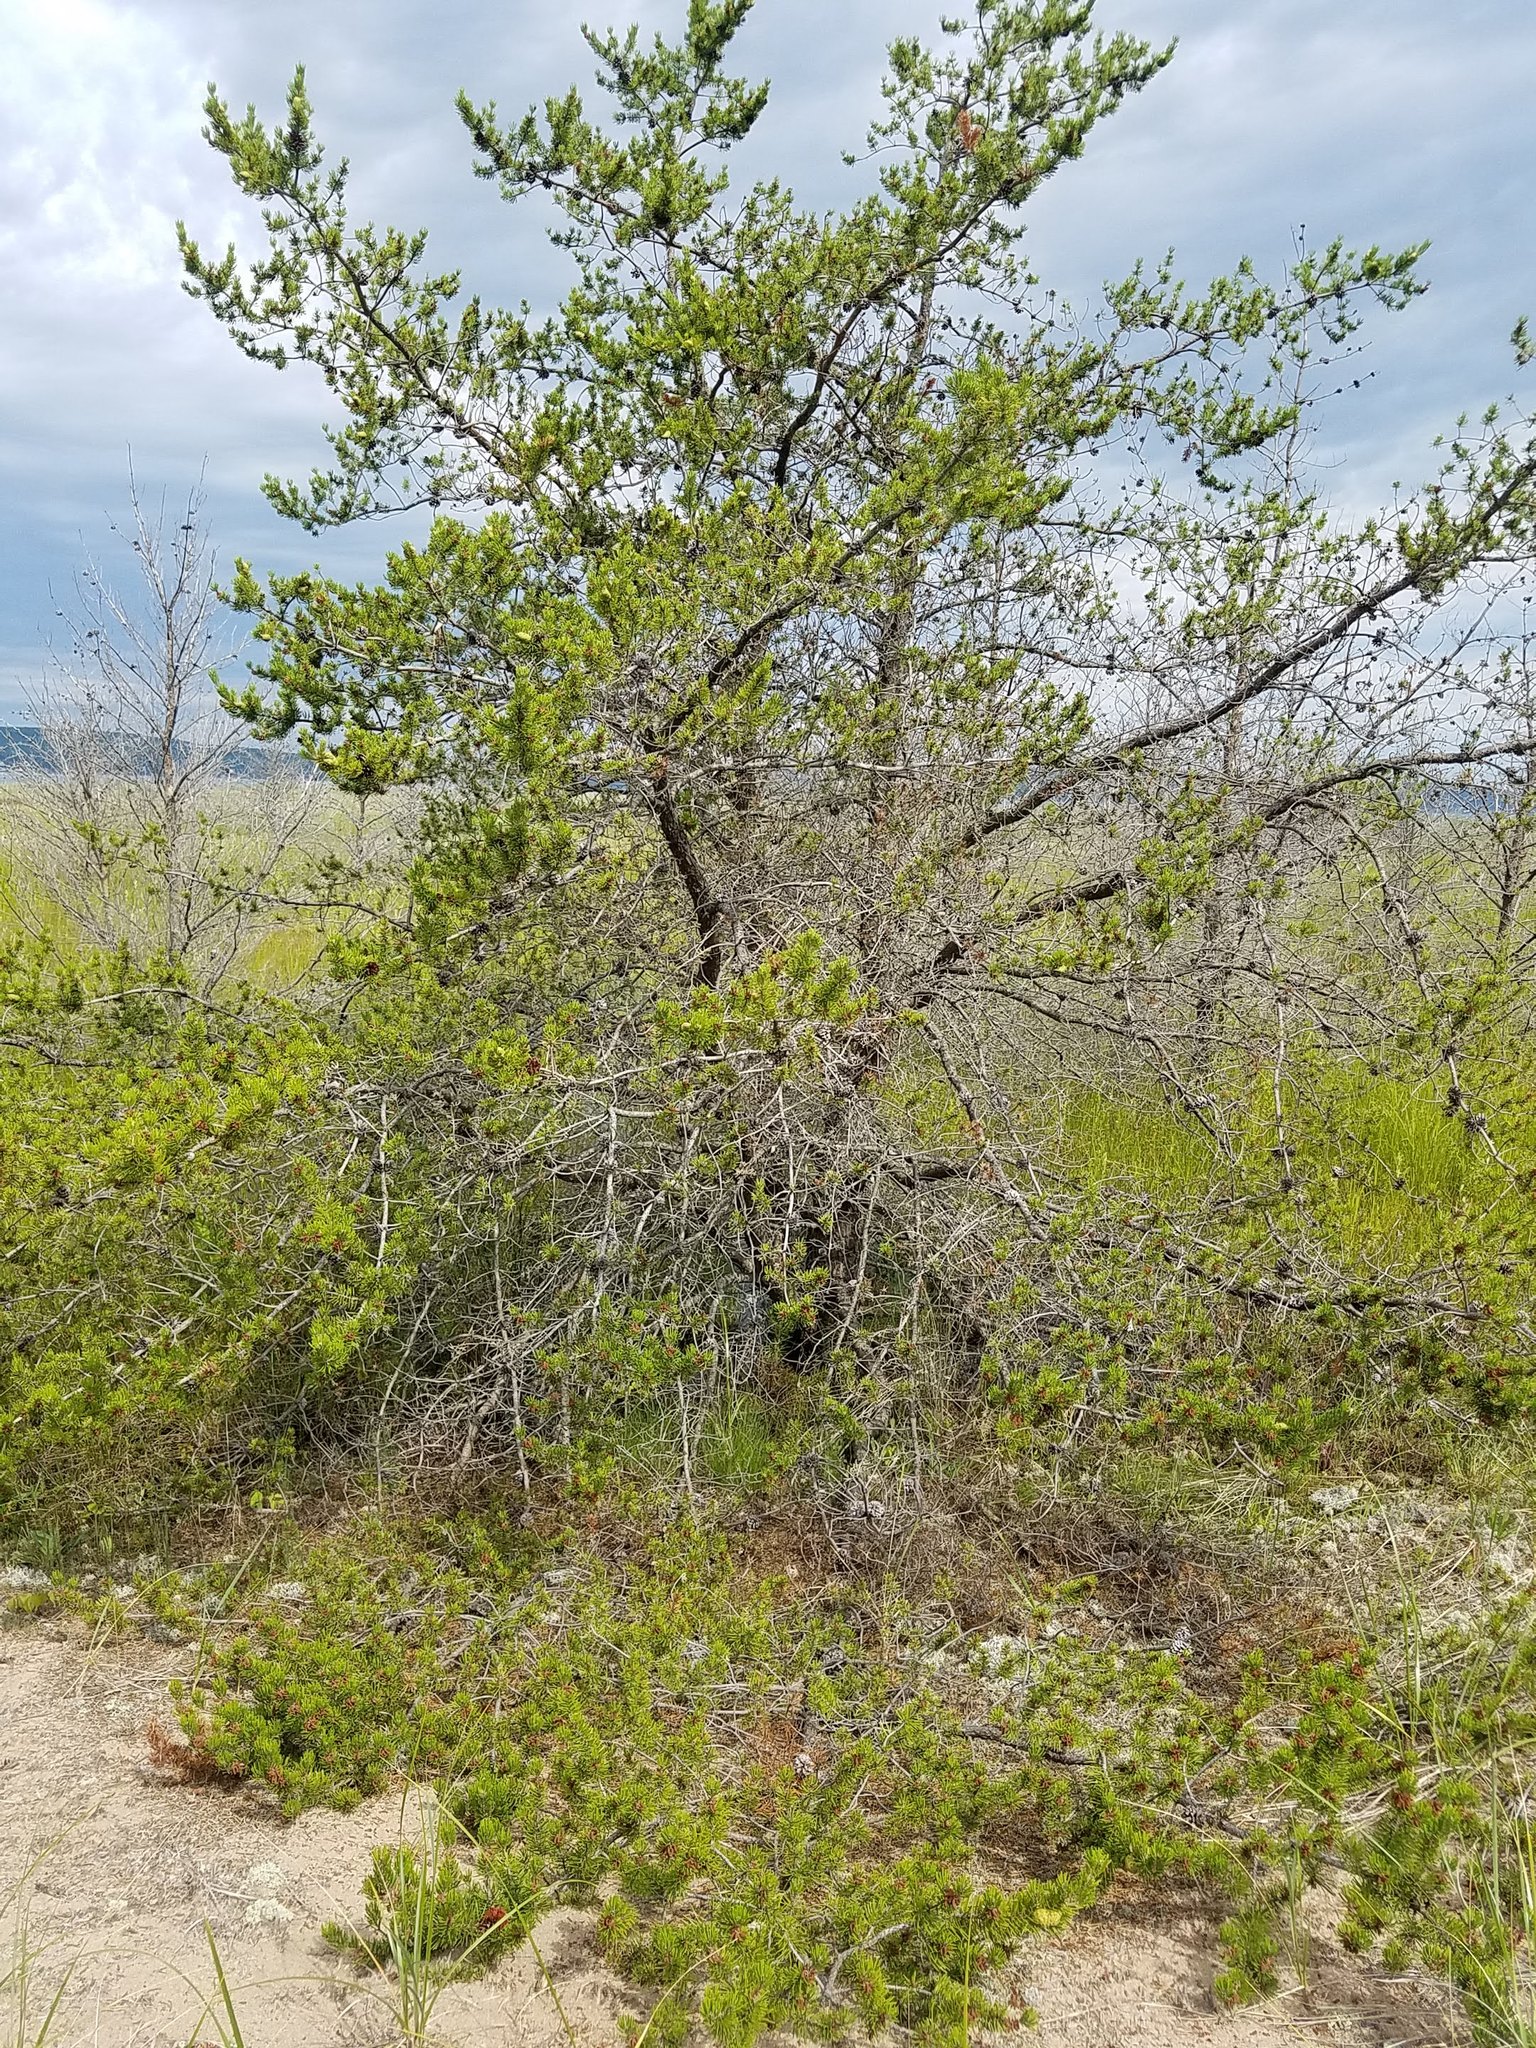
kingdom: Plantae
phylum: Tracheophyta
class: Pinopsida
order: Pinales
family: Pinaceae
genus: Pinus
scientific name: Pinus banksiana
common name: Jack pine
